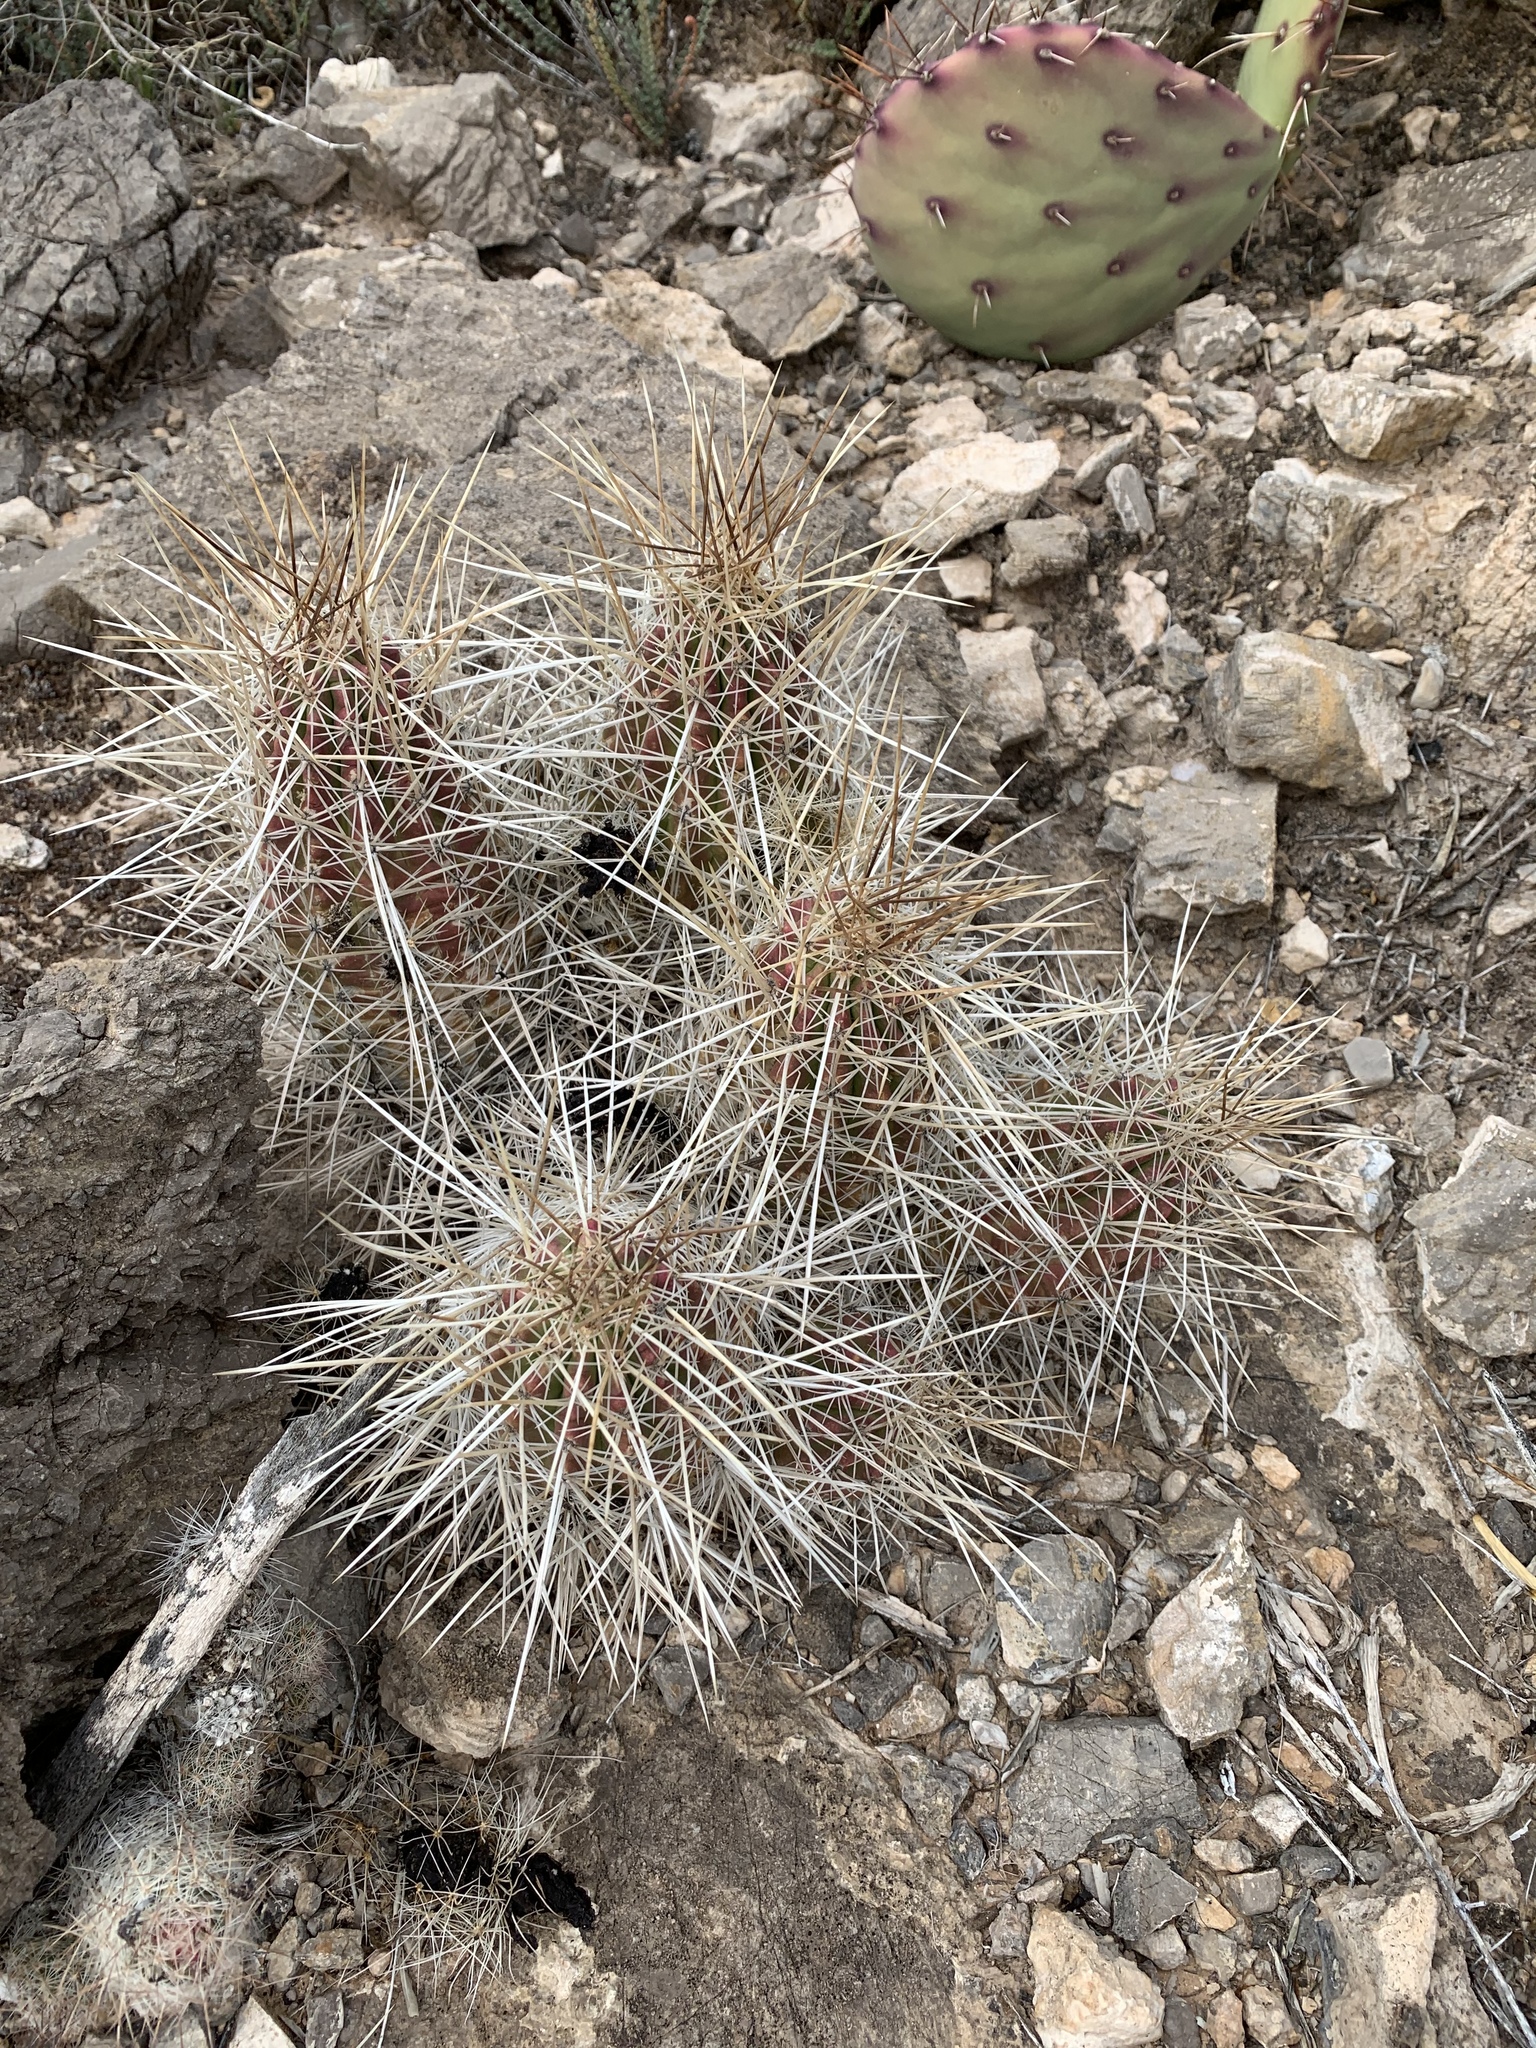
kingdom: Plantae
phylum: Tracheophyta
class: Magnoliopsida
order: Caryophyllales
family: Cactaceae
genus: Echinocereus
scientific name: Echinocereus stramineus
